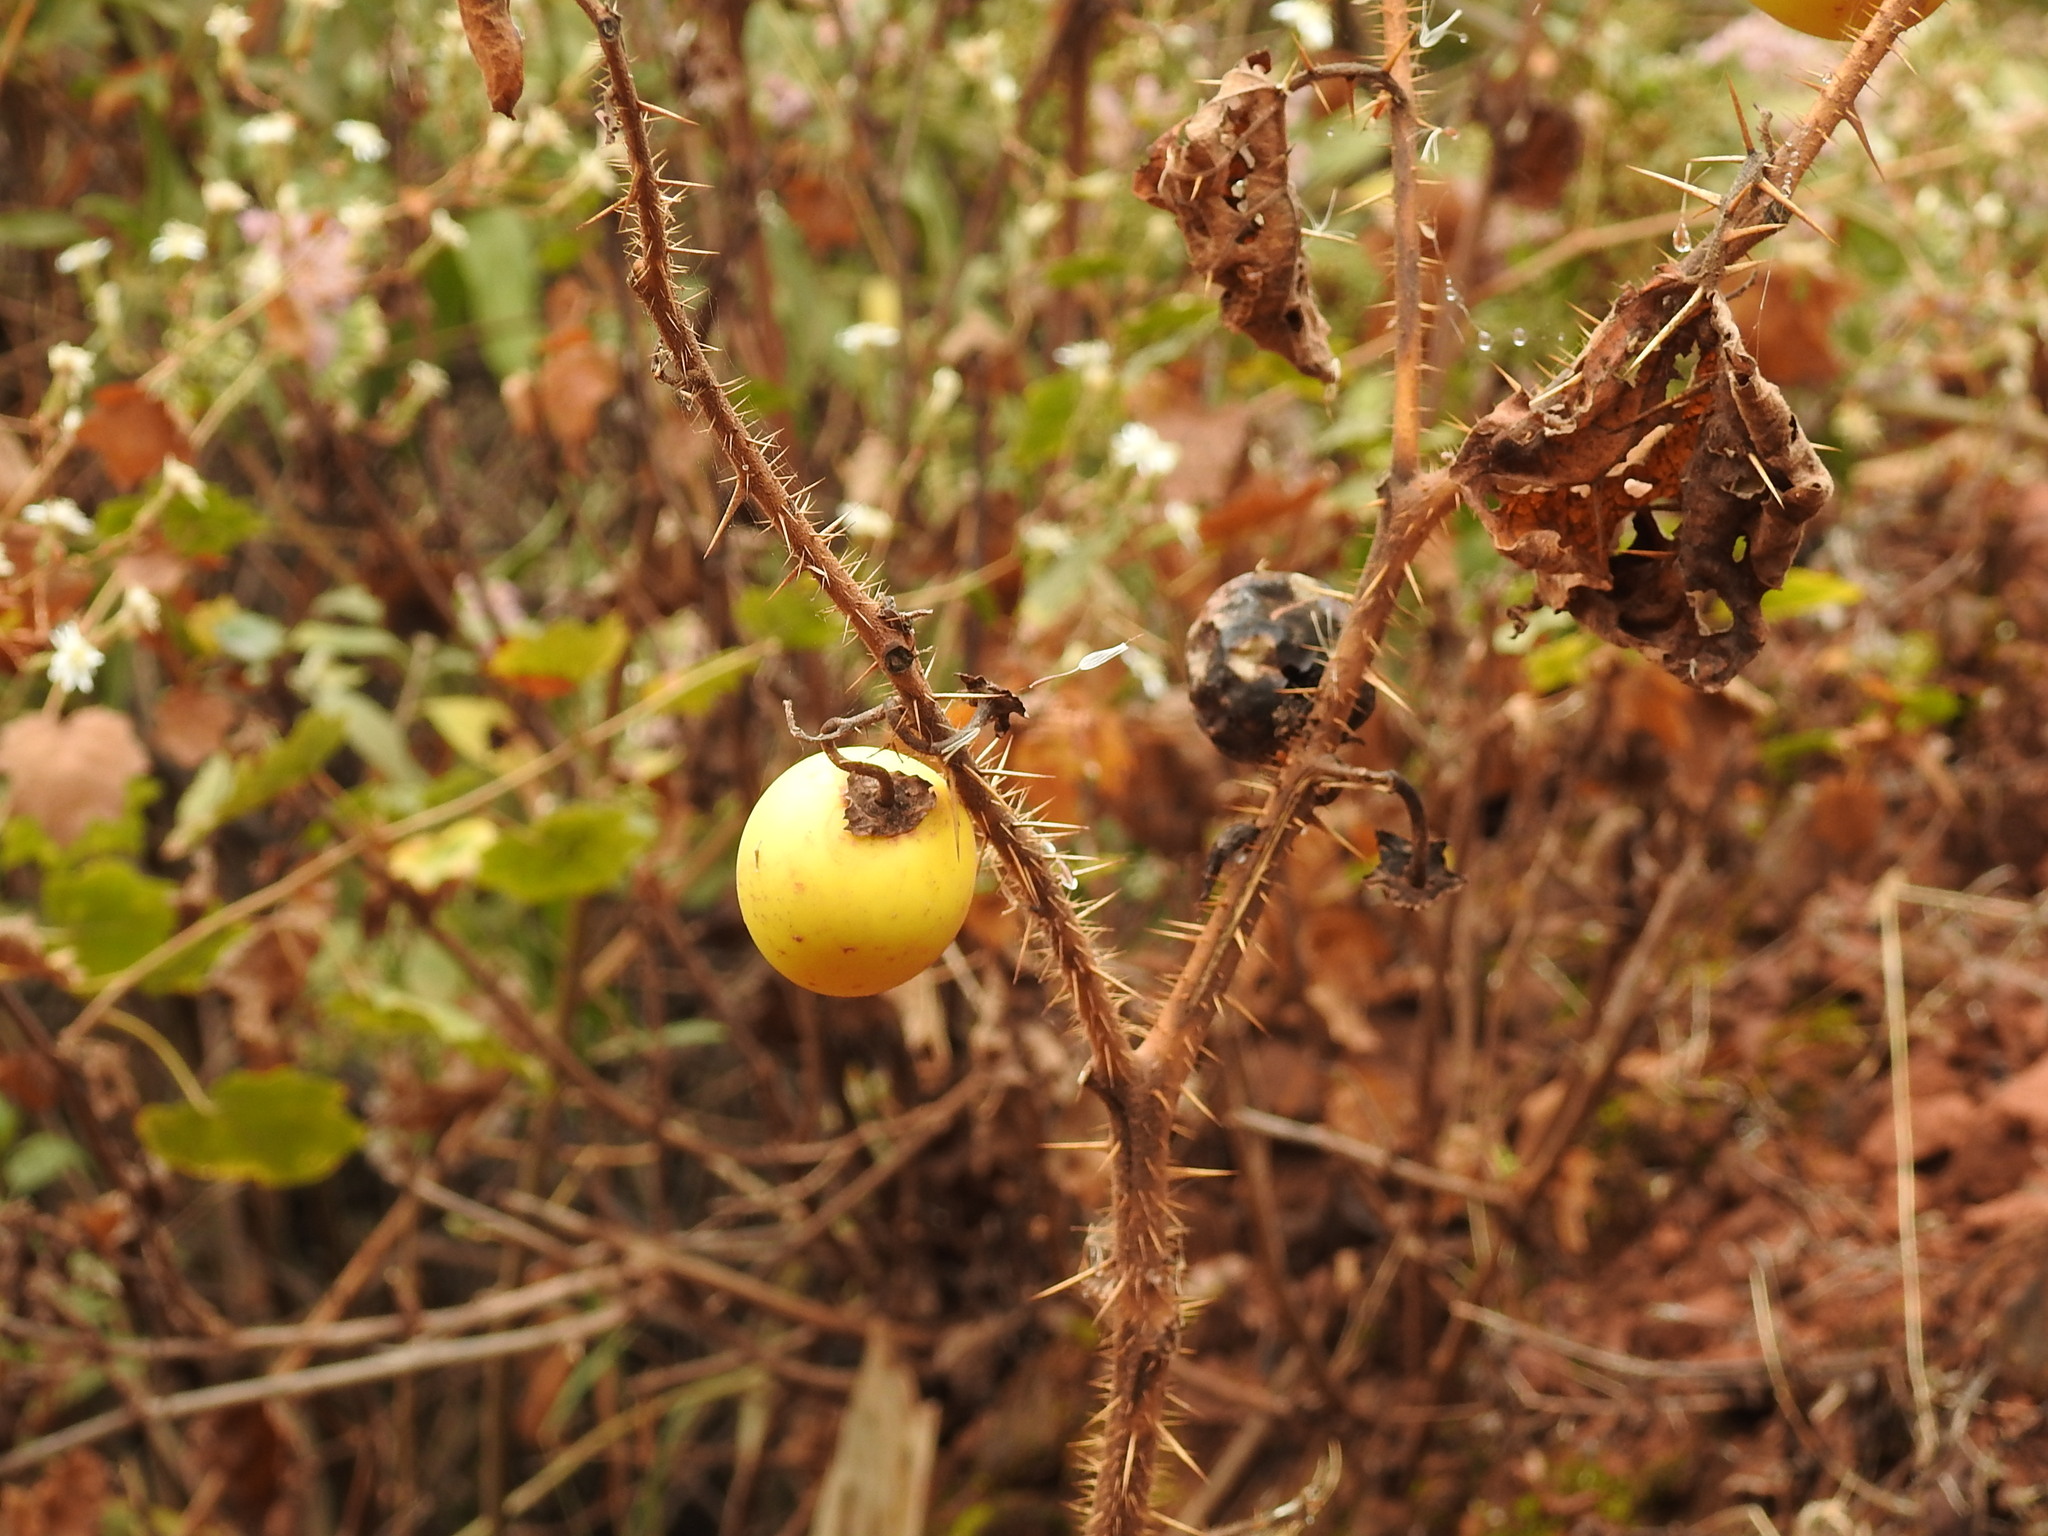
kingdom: Plantae
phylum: Tracheophyta
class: Magnoliopsida
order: Solanales
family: Solanaceae
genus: Solanum
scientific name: Solanum palinacanthum
